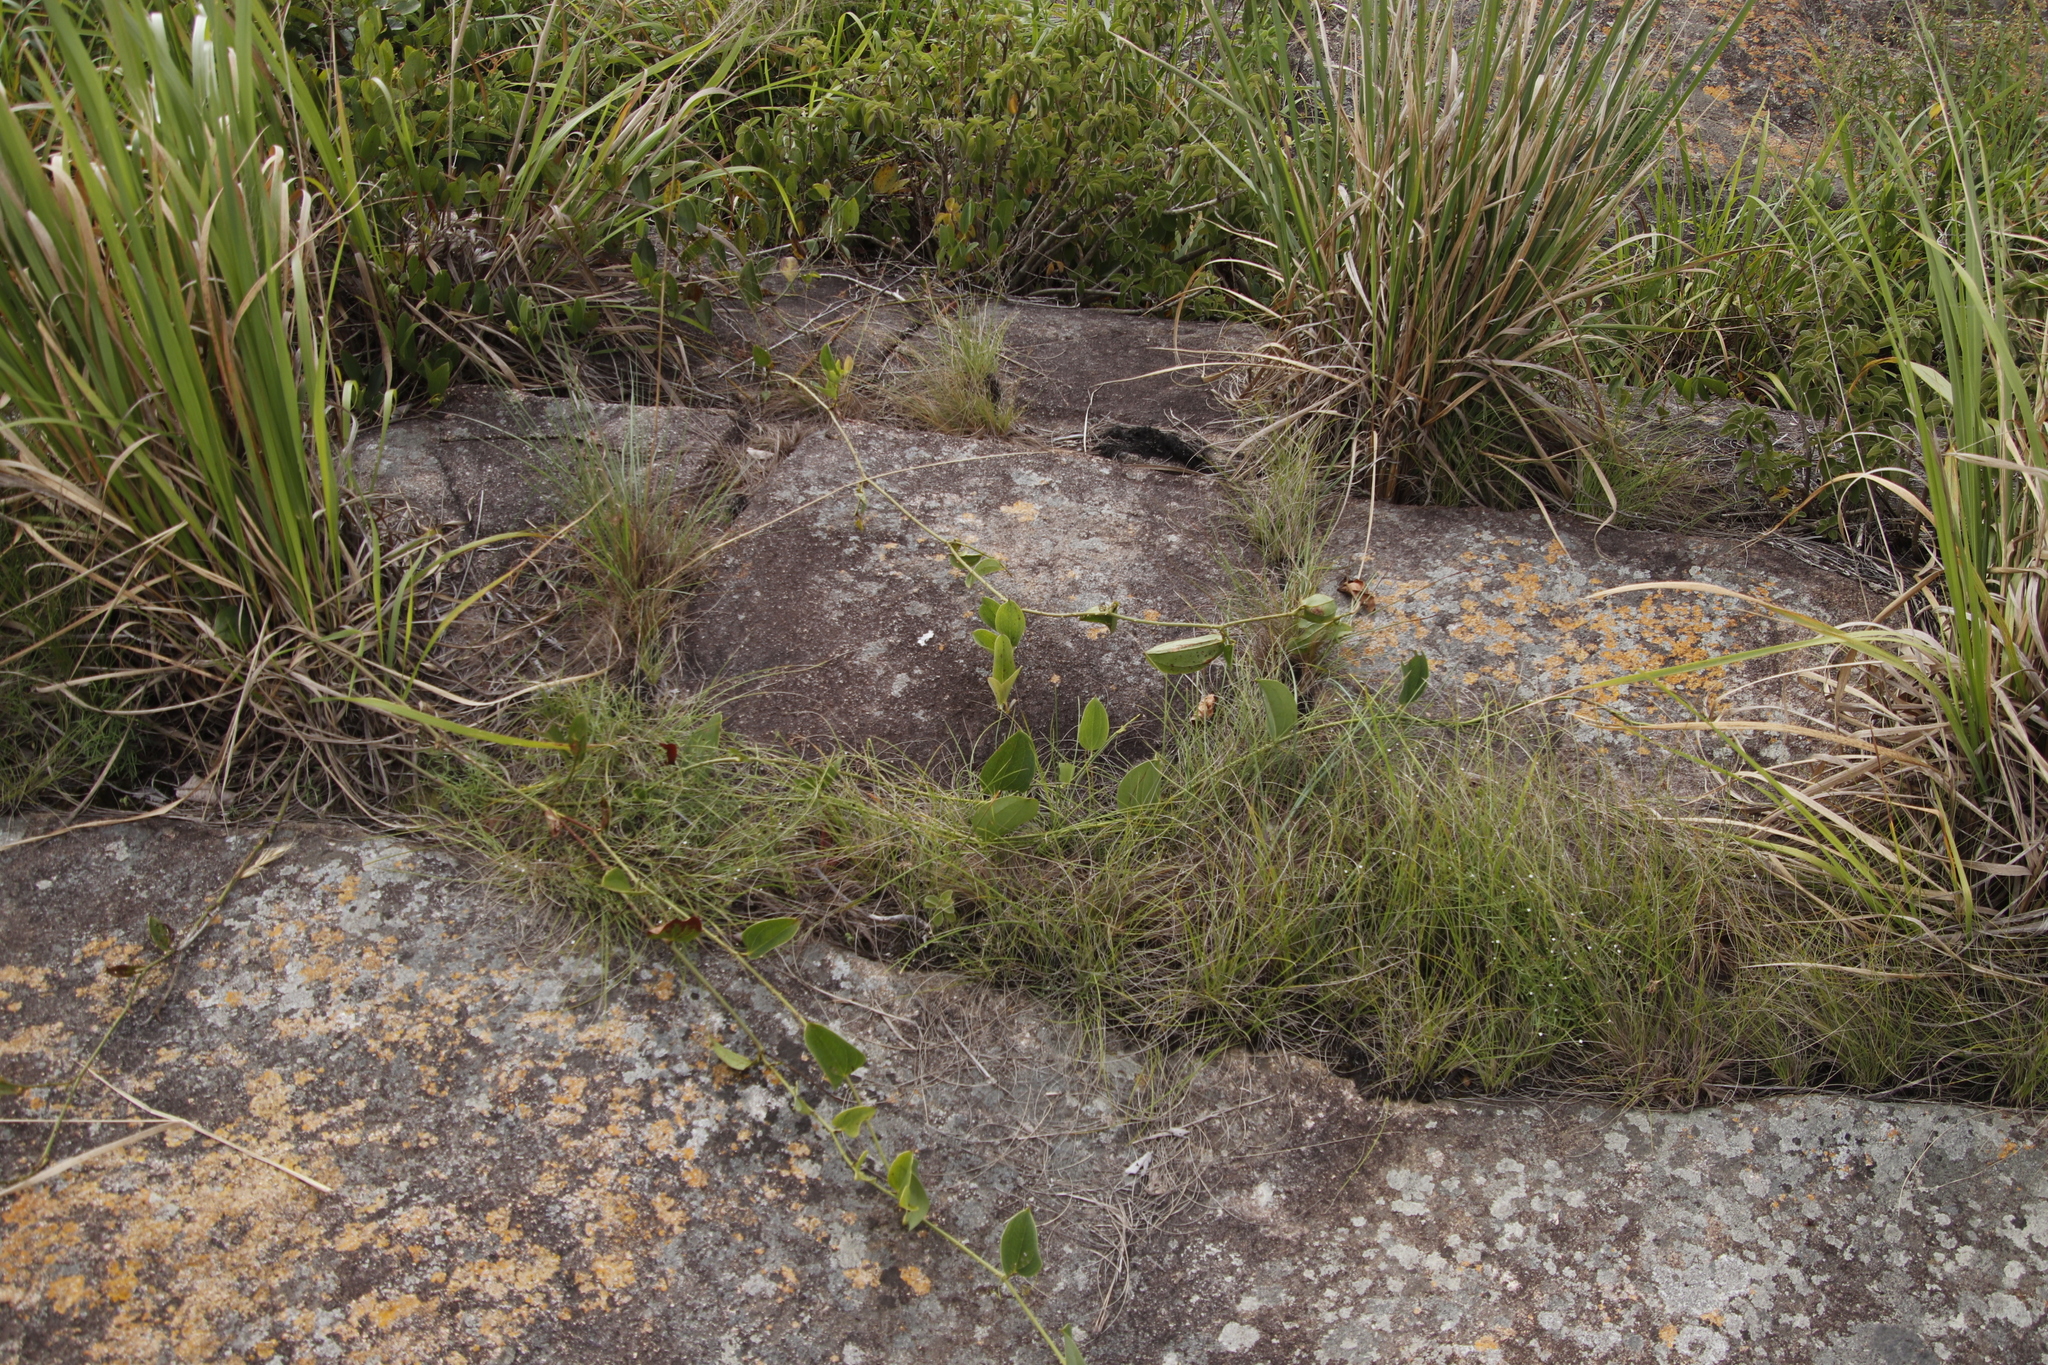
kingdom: Plantae
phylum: Tracheophyta
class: Liliopsida
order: Liliales
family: Smilacaceae
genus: Smilax
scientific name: Smilax anceps
